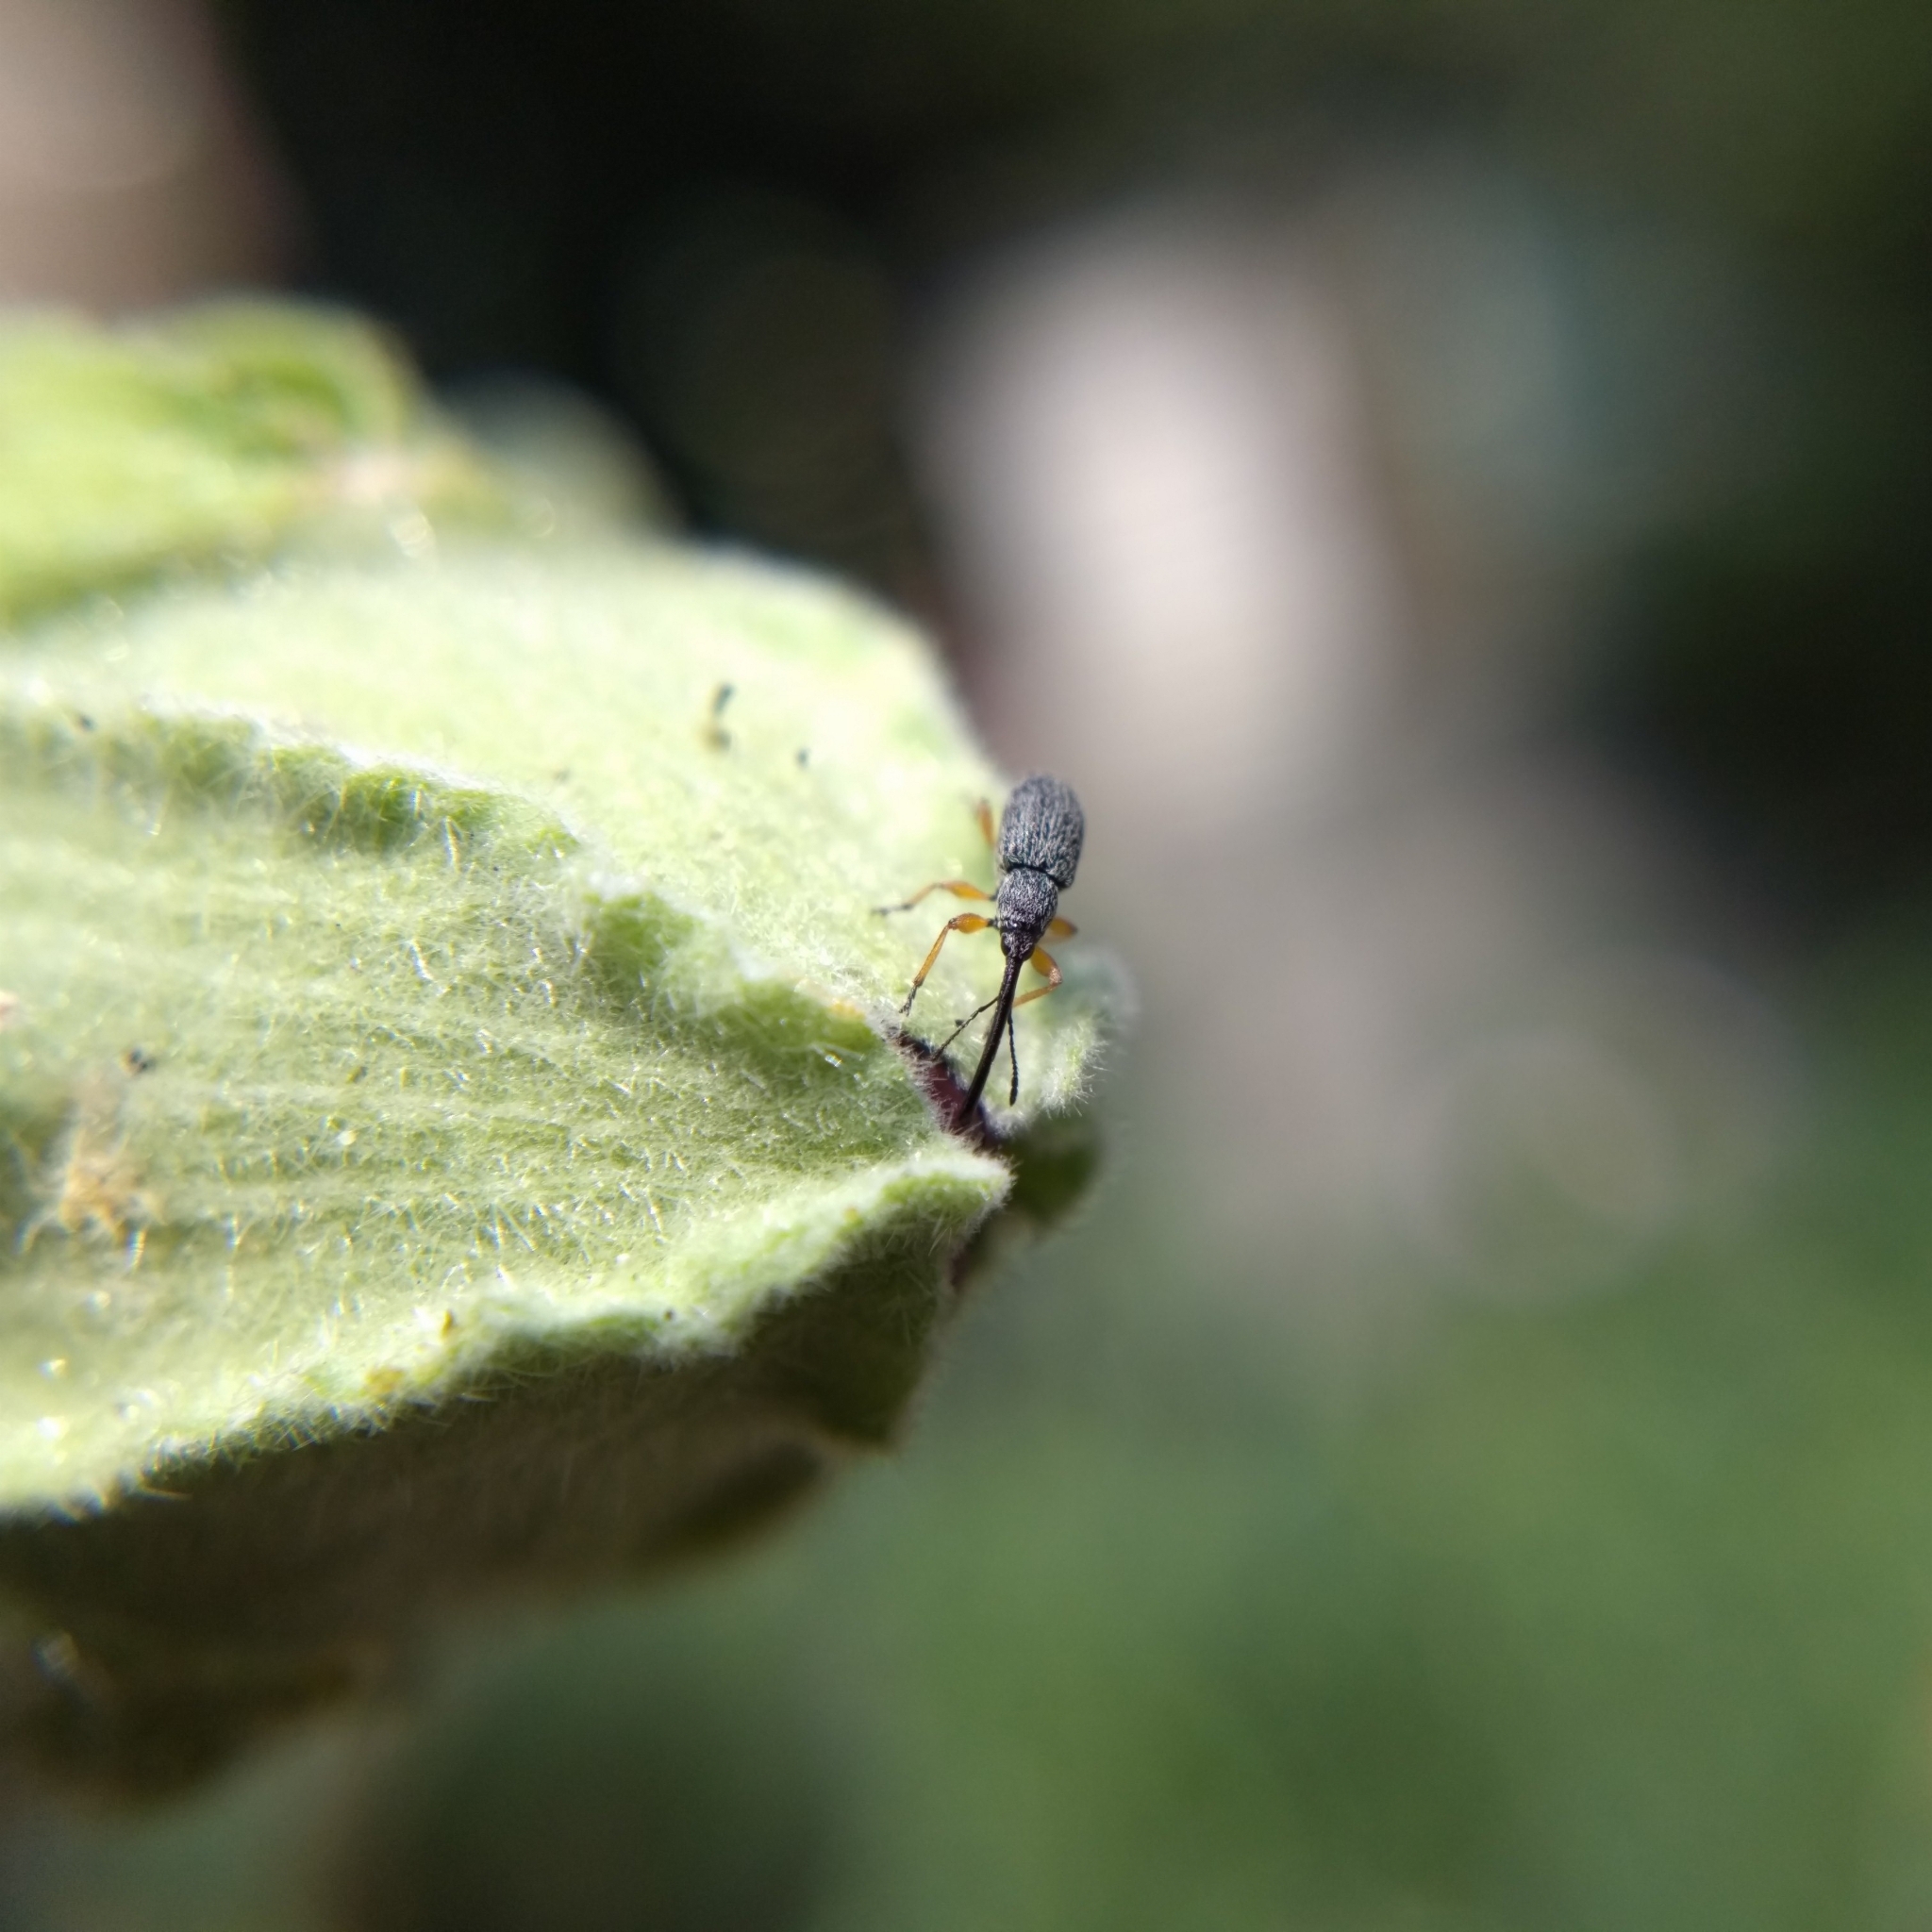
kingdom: Animalia
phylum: Arthropoda
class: Insecta
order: Coleoptera
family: Brentidae
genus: Rhopalapion
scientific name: Rhopalapion longirostre
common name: Hollyhock weevil
